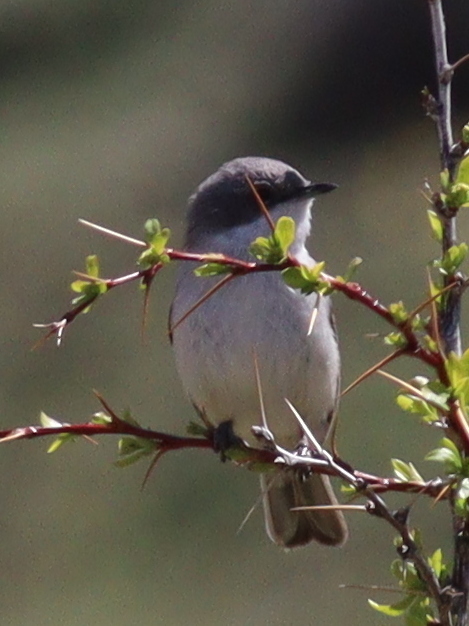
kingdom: Animalia
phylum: Chordata
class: Aves
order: Passeriformes
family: Sylviidae
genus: Sylvia
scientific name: Sylvia curruca
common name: Lesser whitethroat
